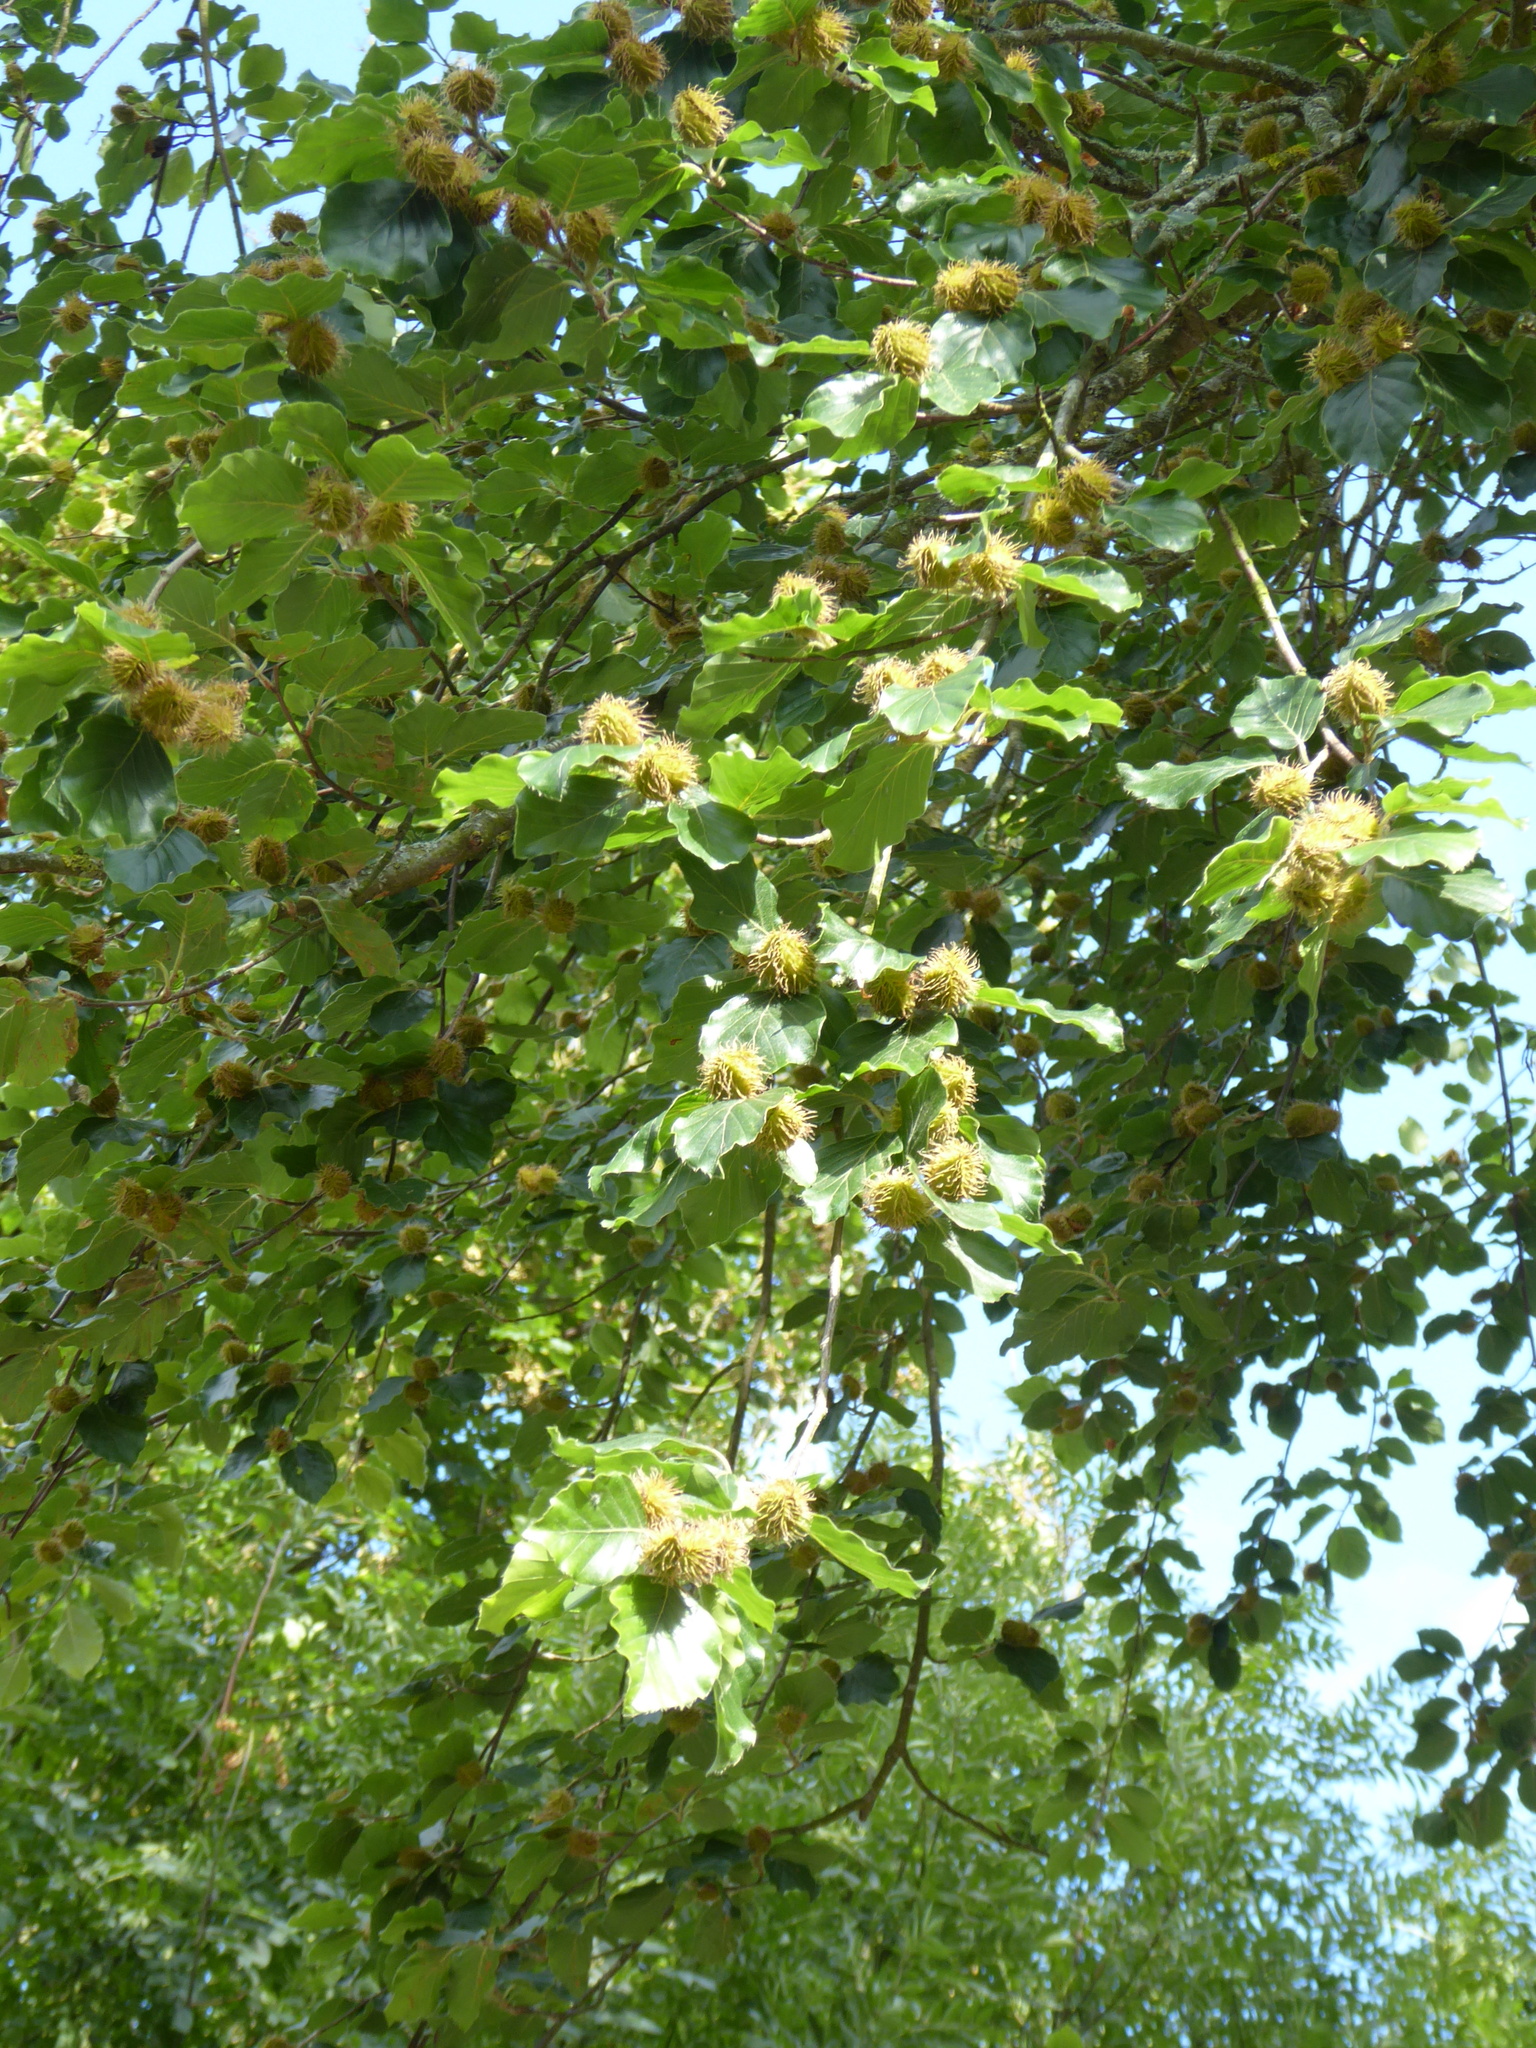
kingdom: Plantae
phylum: Tracheophyta
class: Magnoliopsida
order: Fagales
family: Fagaceae
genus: Fagus
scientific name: Fagus sylvatica
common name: Beech
